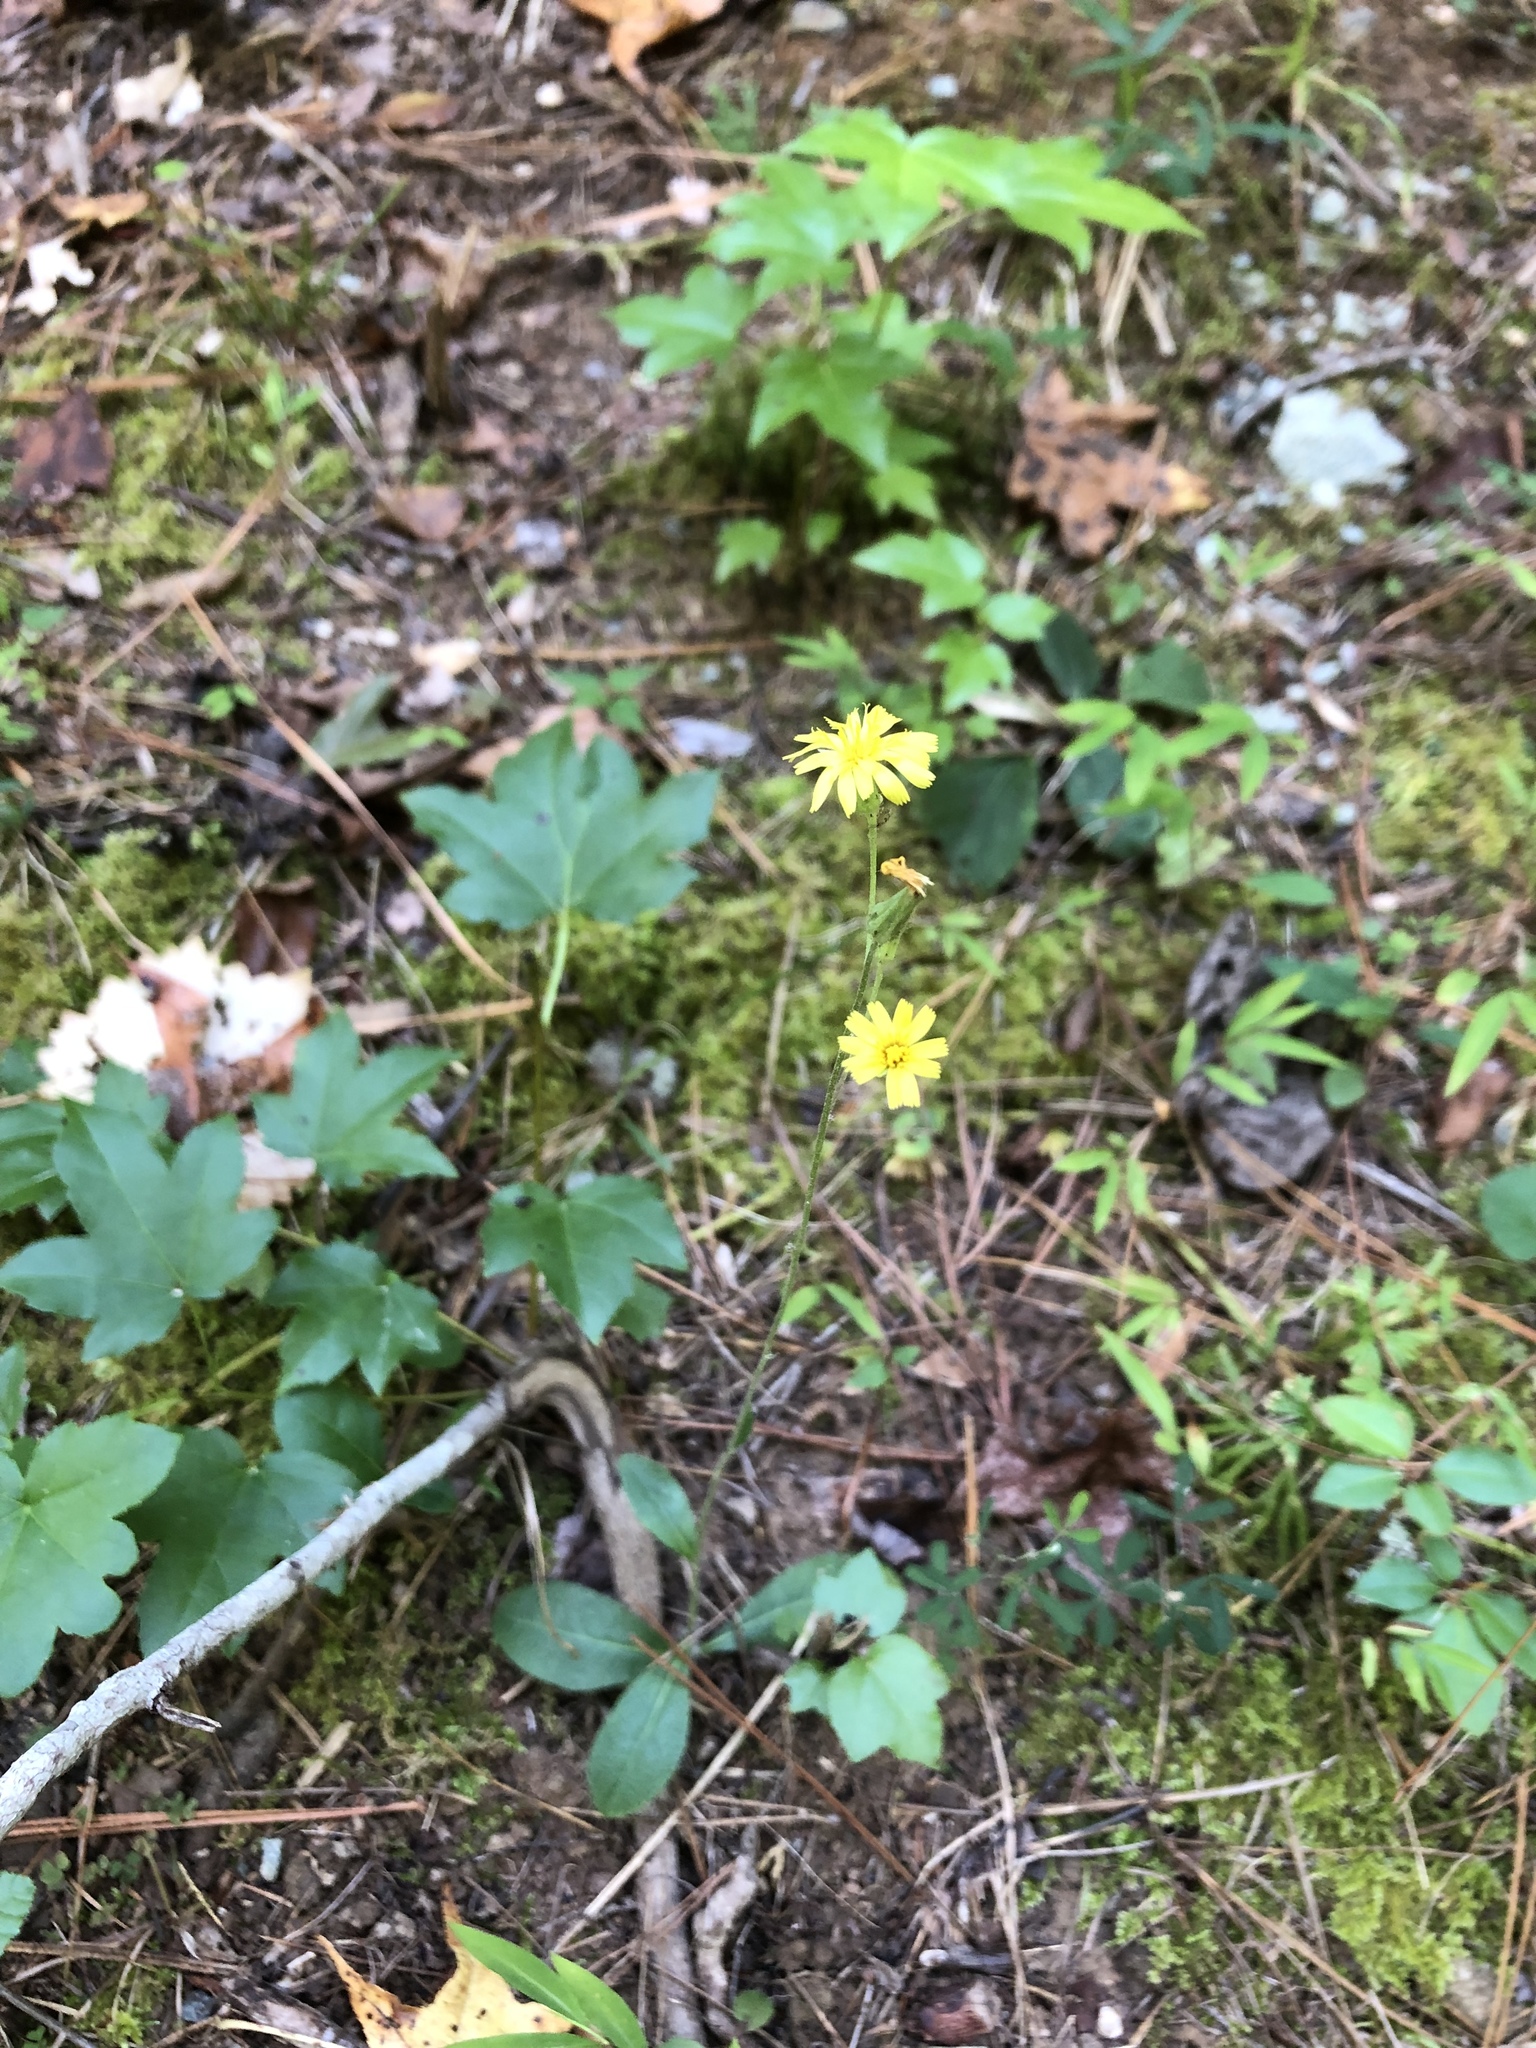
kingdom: Plantae
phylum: Tracheophyta
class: Magnoliopsida
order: Asterales
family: Asteraceae
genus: Hieracium
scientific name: Hieracium venosum
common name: Rattlesnake hawkweed
